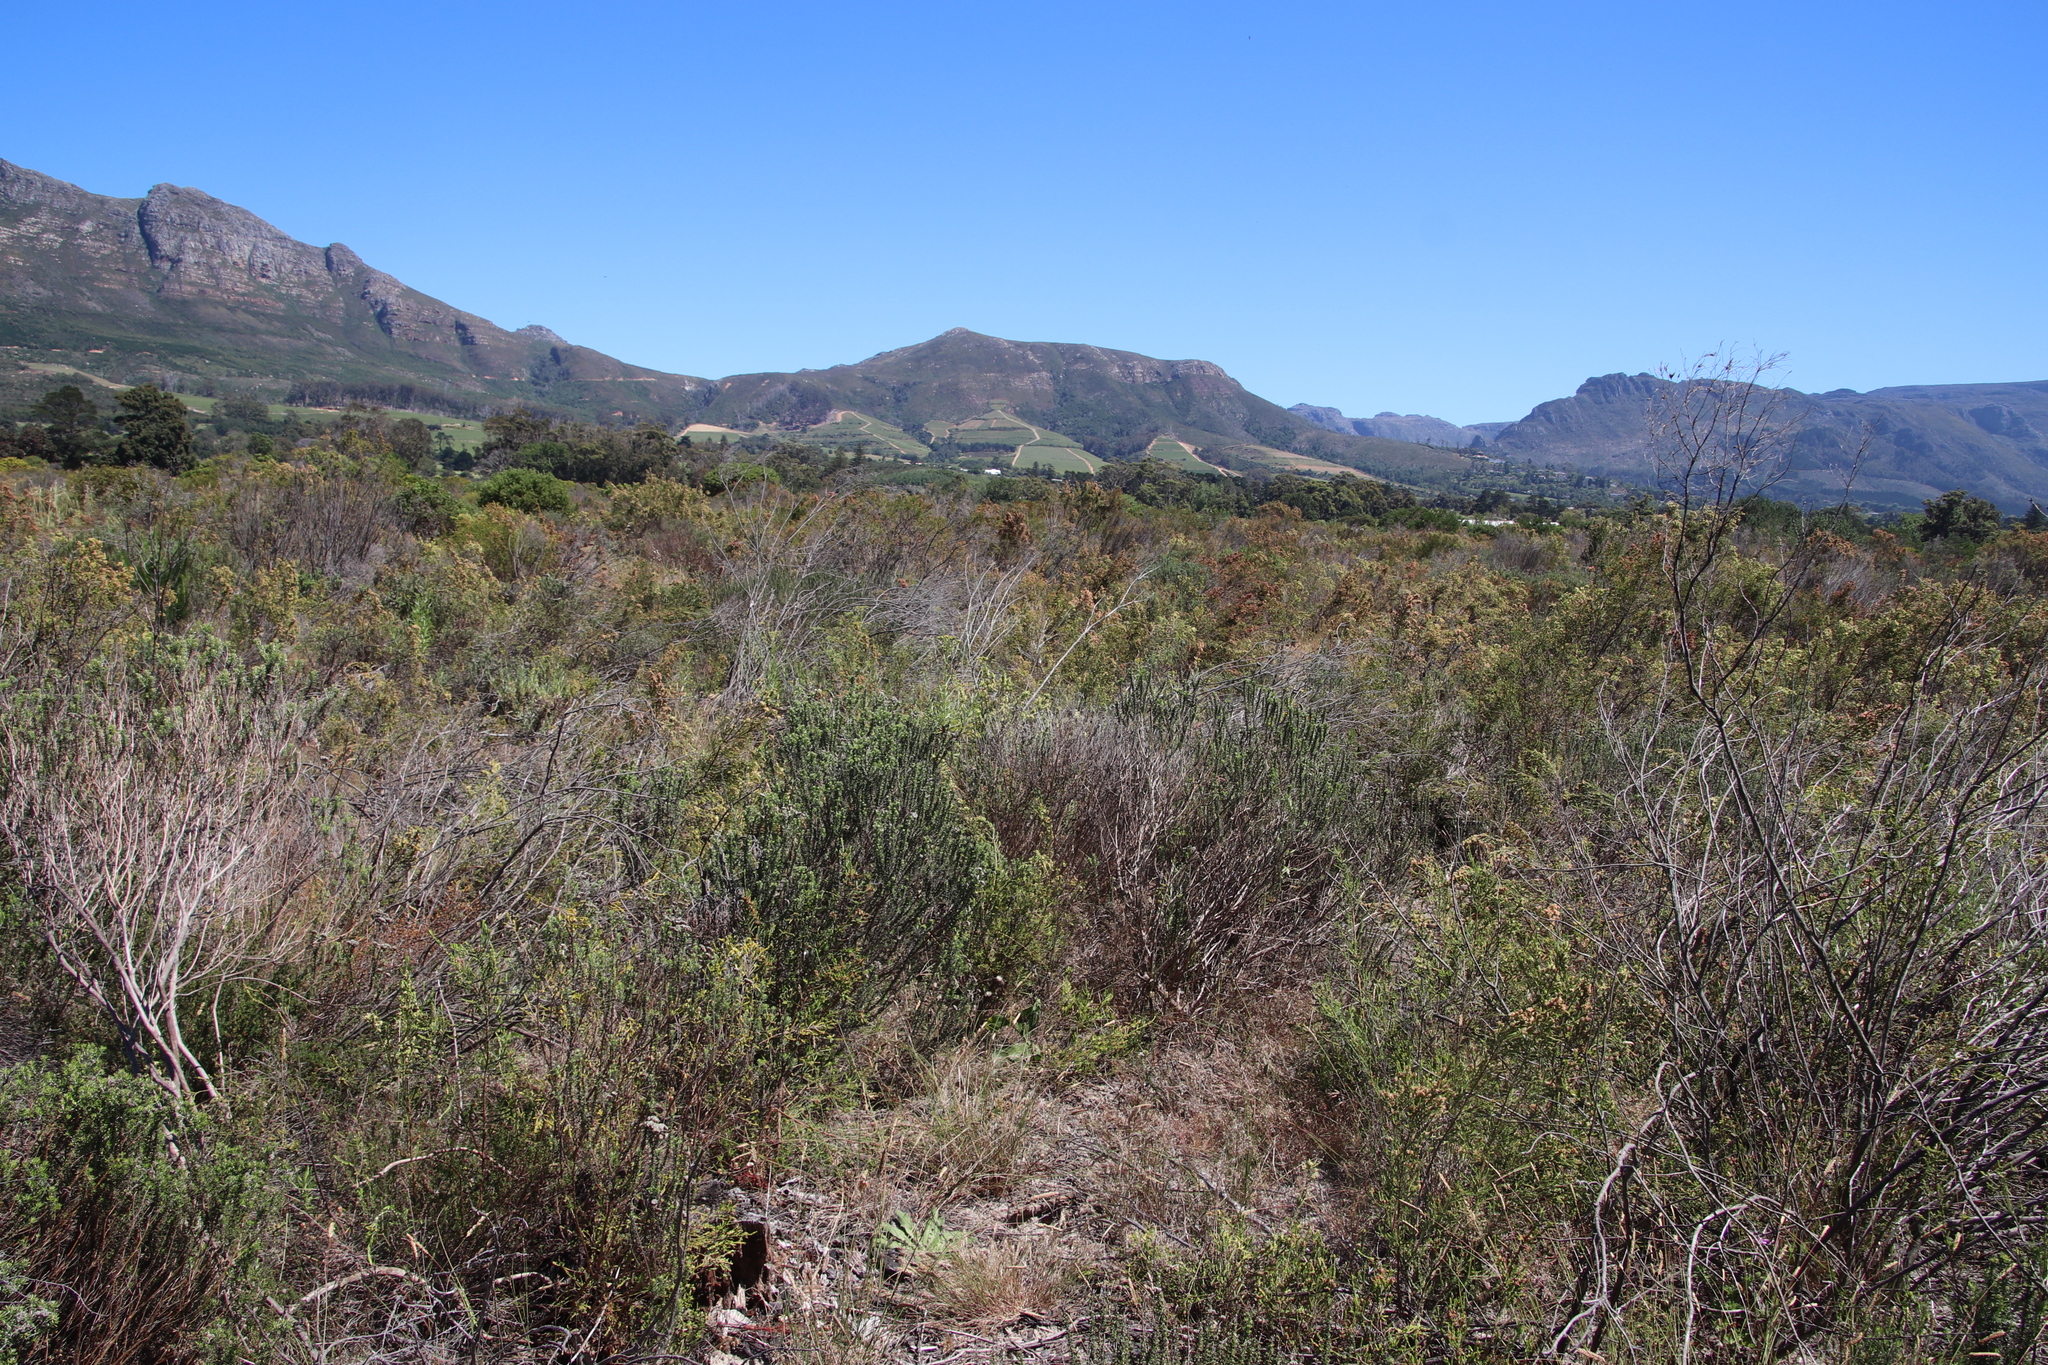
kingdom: Plantae
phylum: Tracheophyta
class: Magnoliopsida
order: Asterales
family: Asteraceae
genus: Metalasia
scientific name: Metalasia densa
